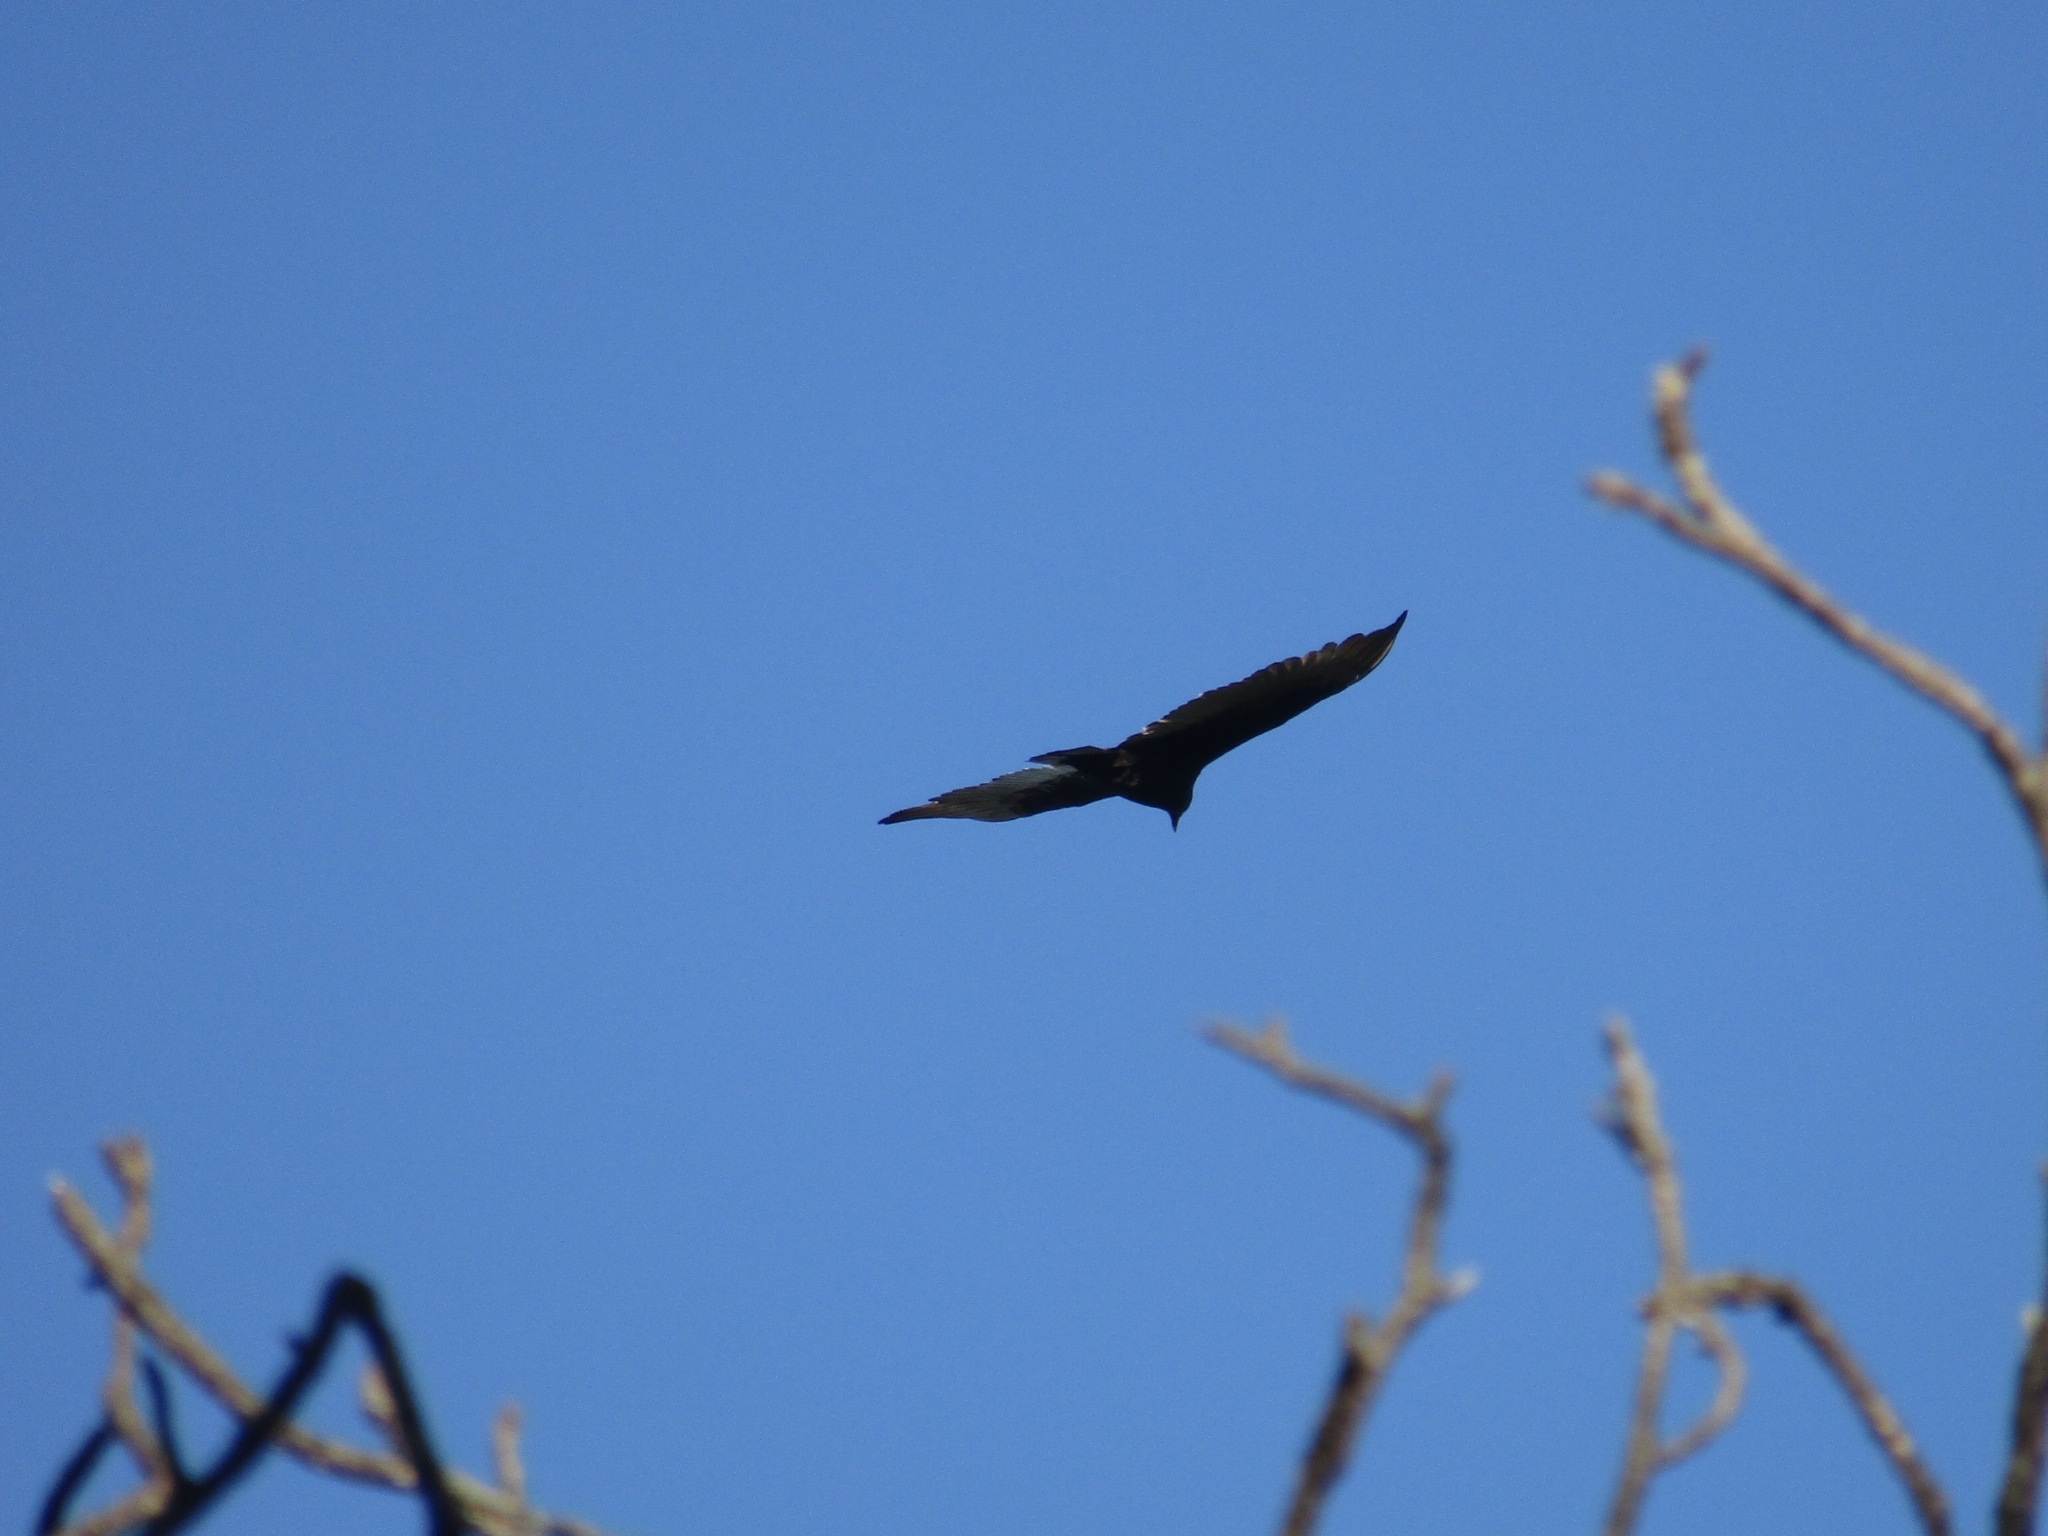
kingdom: Animalia
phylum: Chordata
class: Aves
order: Accipitriformes
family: Cathartidae
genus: Cathartes
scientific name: Cathartes aura
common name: Turkey vulture
